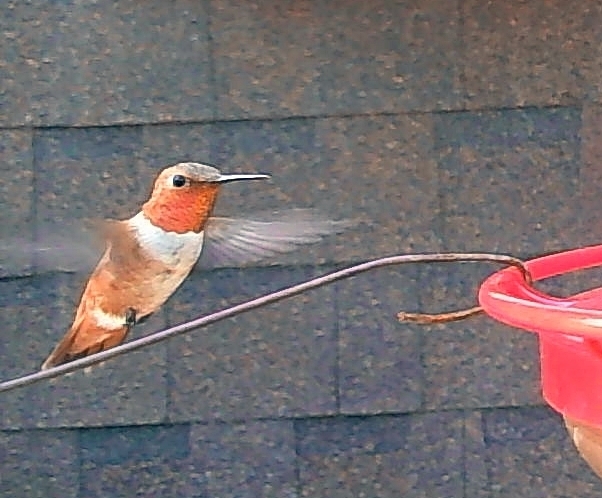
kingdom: Animalia
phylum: Chordata
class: Aves
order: Apodiformes
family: Trochilidae
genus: Selasphorus
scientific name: Selasphorus rufus
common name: Rufous hummingbird
